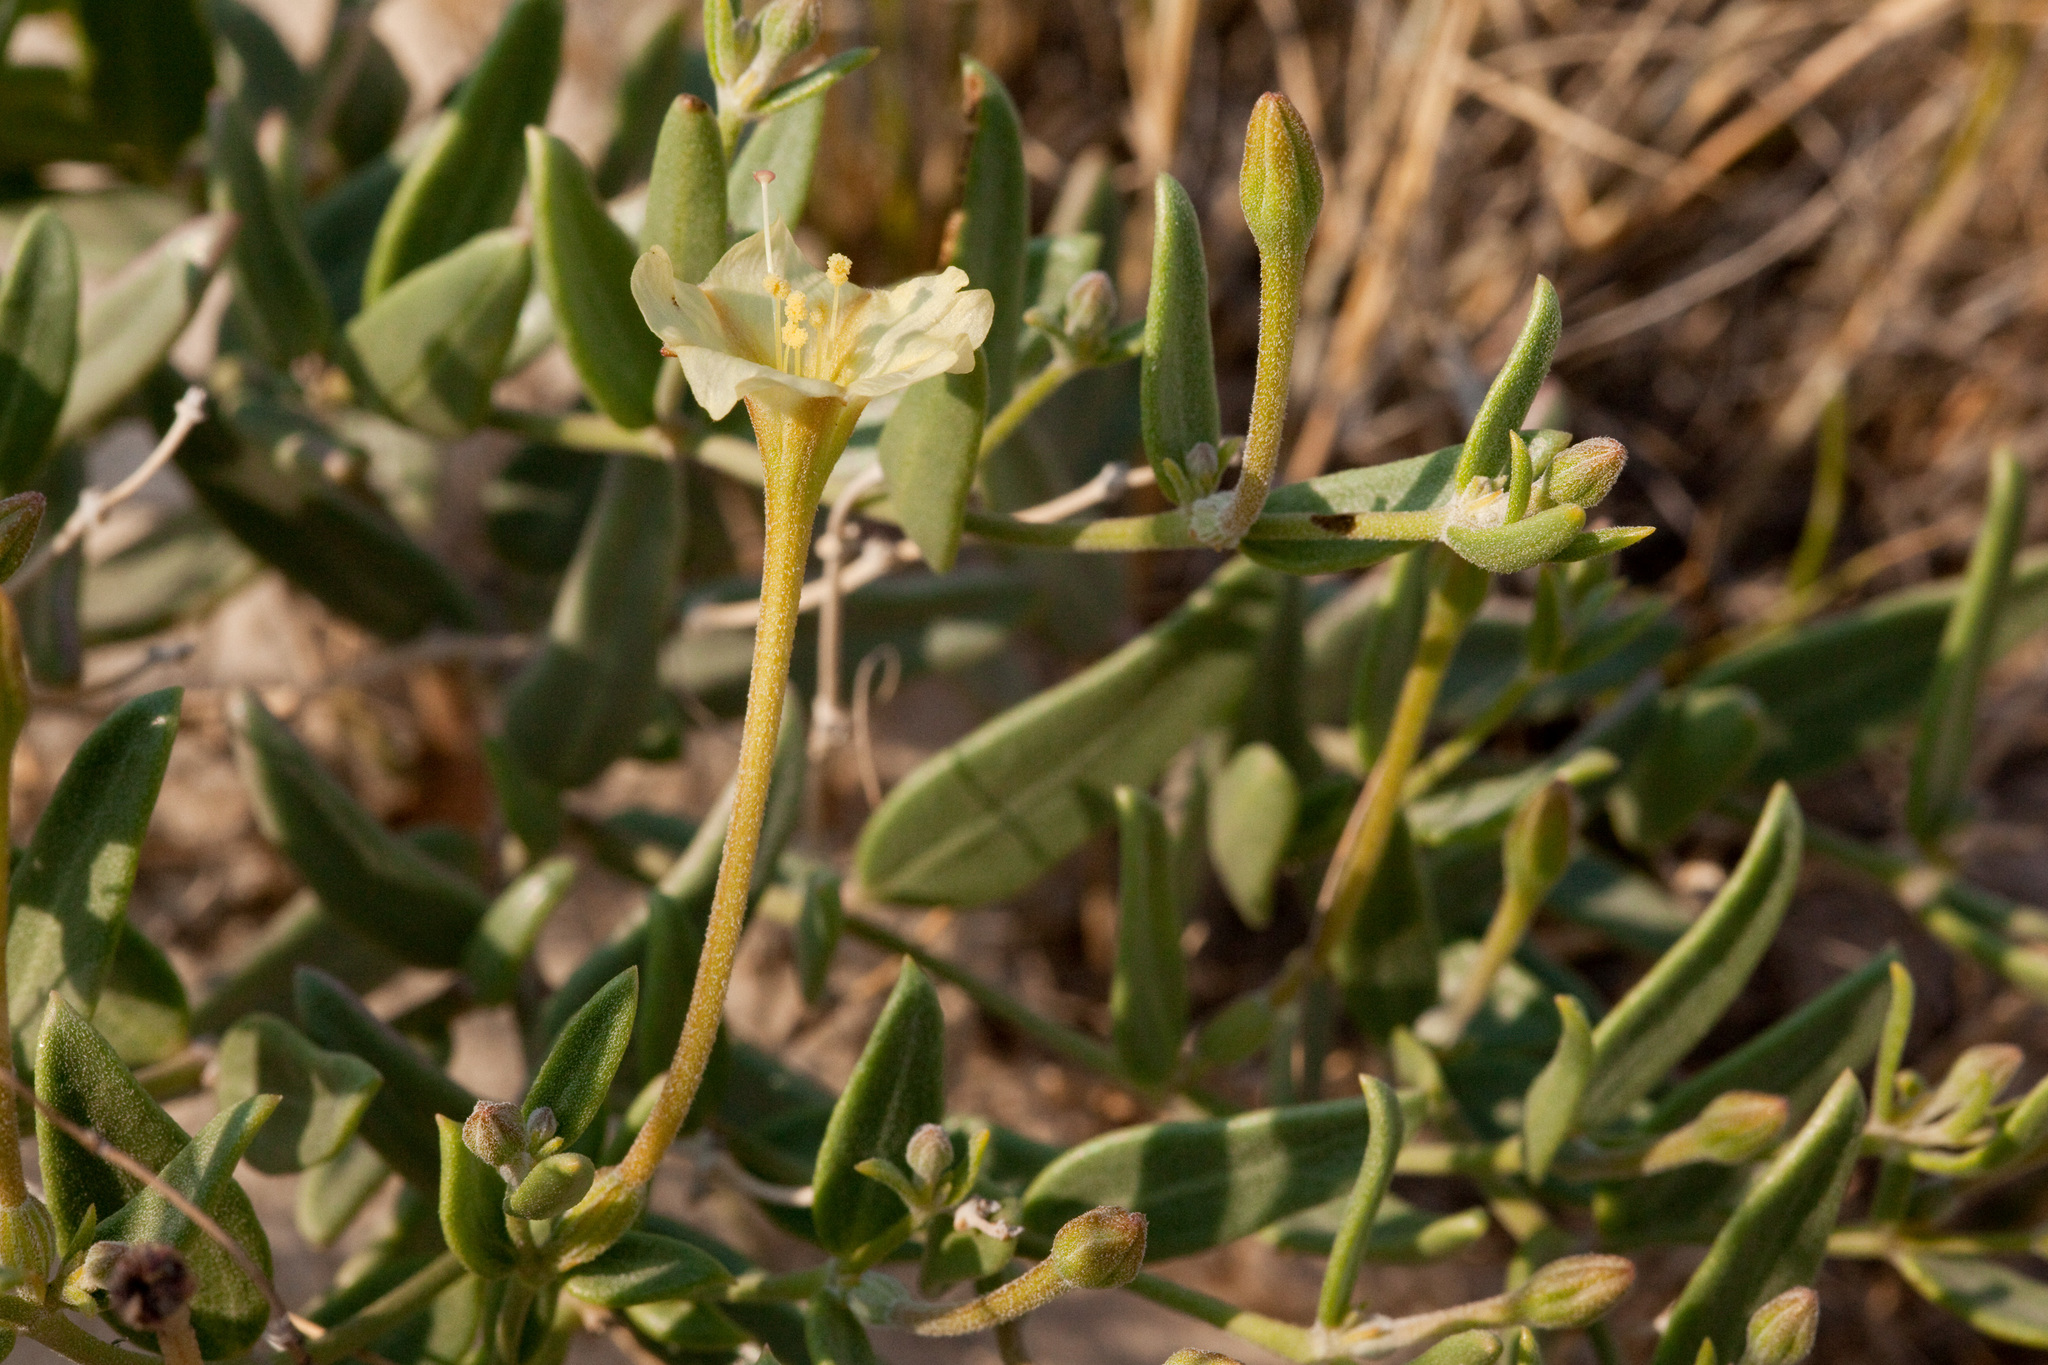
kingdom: Plantae
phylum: Tracheophyta
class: Magnoliopsida
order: Caryophyllales
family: Nyctaginaceae
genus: Acleisanthes
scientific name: Acleisanthes lanceolata
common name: Gypsum moonpod
